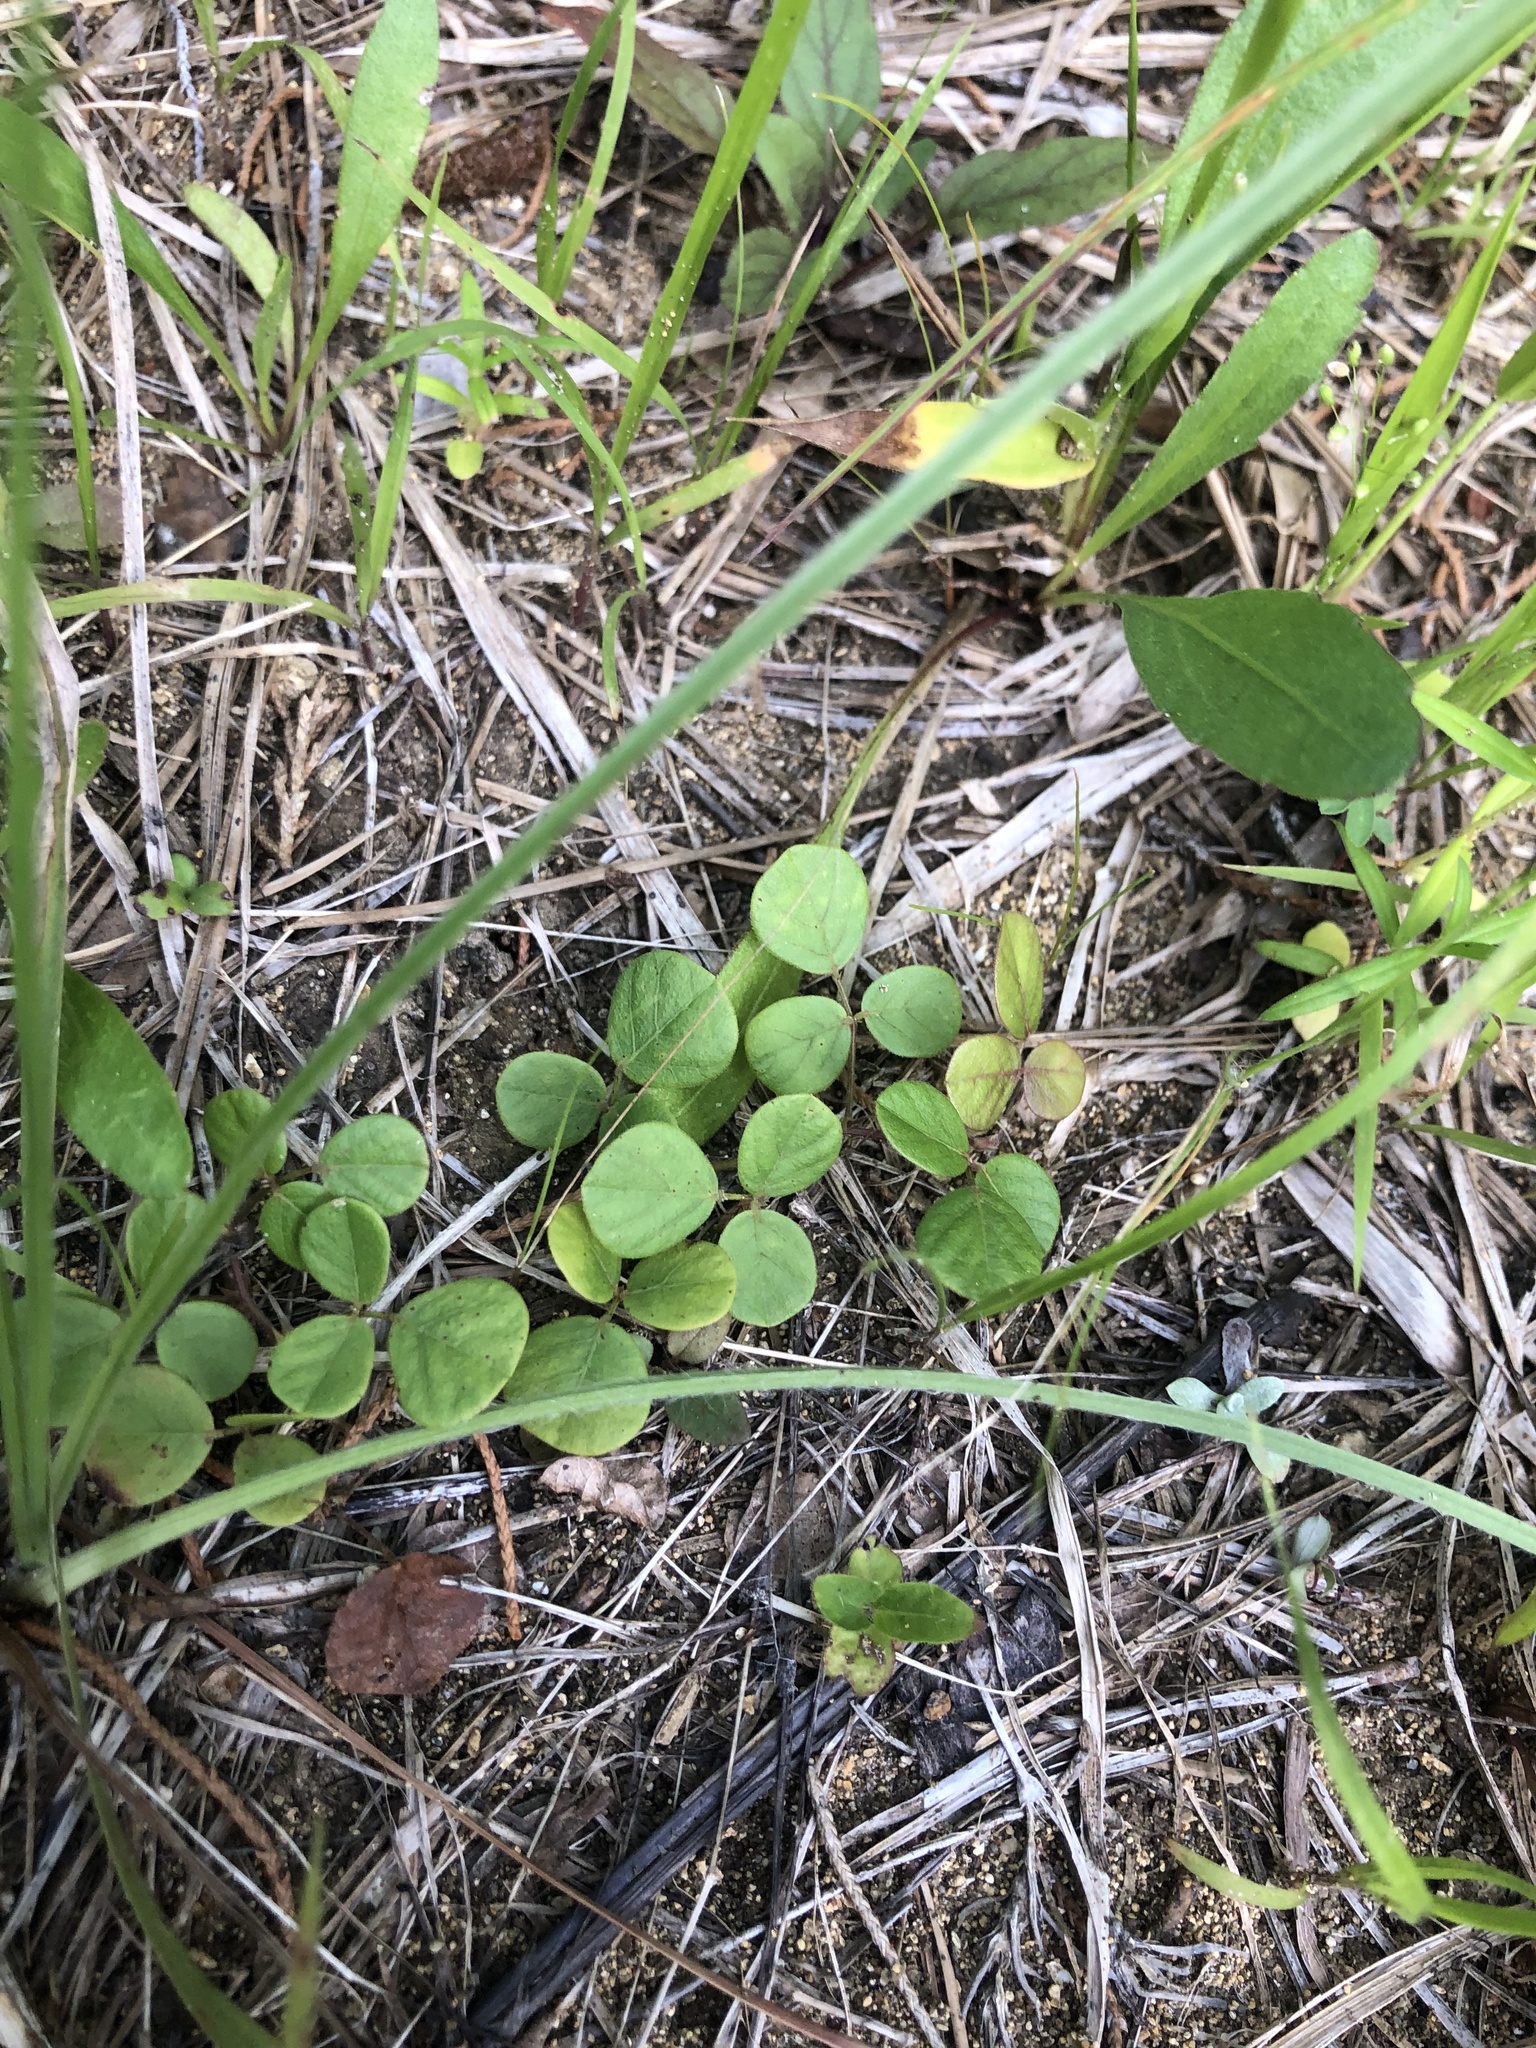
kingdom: Plantae
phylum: Tracheophyta
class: Magnoliopsida
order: Fabales
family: Fabaceae
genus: Desmodium
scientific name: Desmodium lineatum
